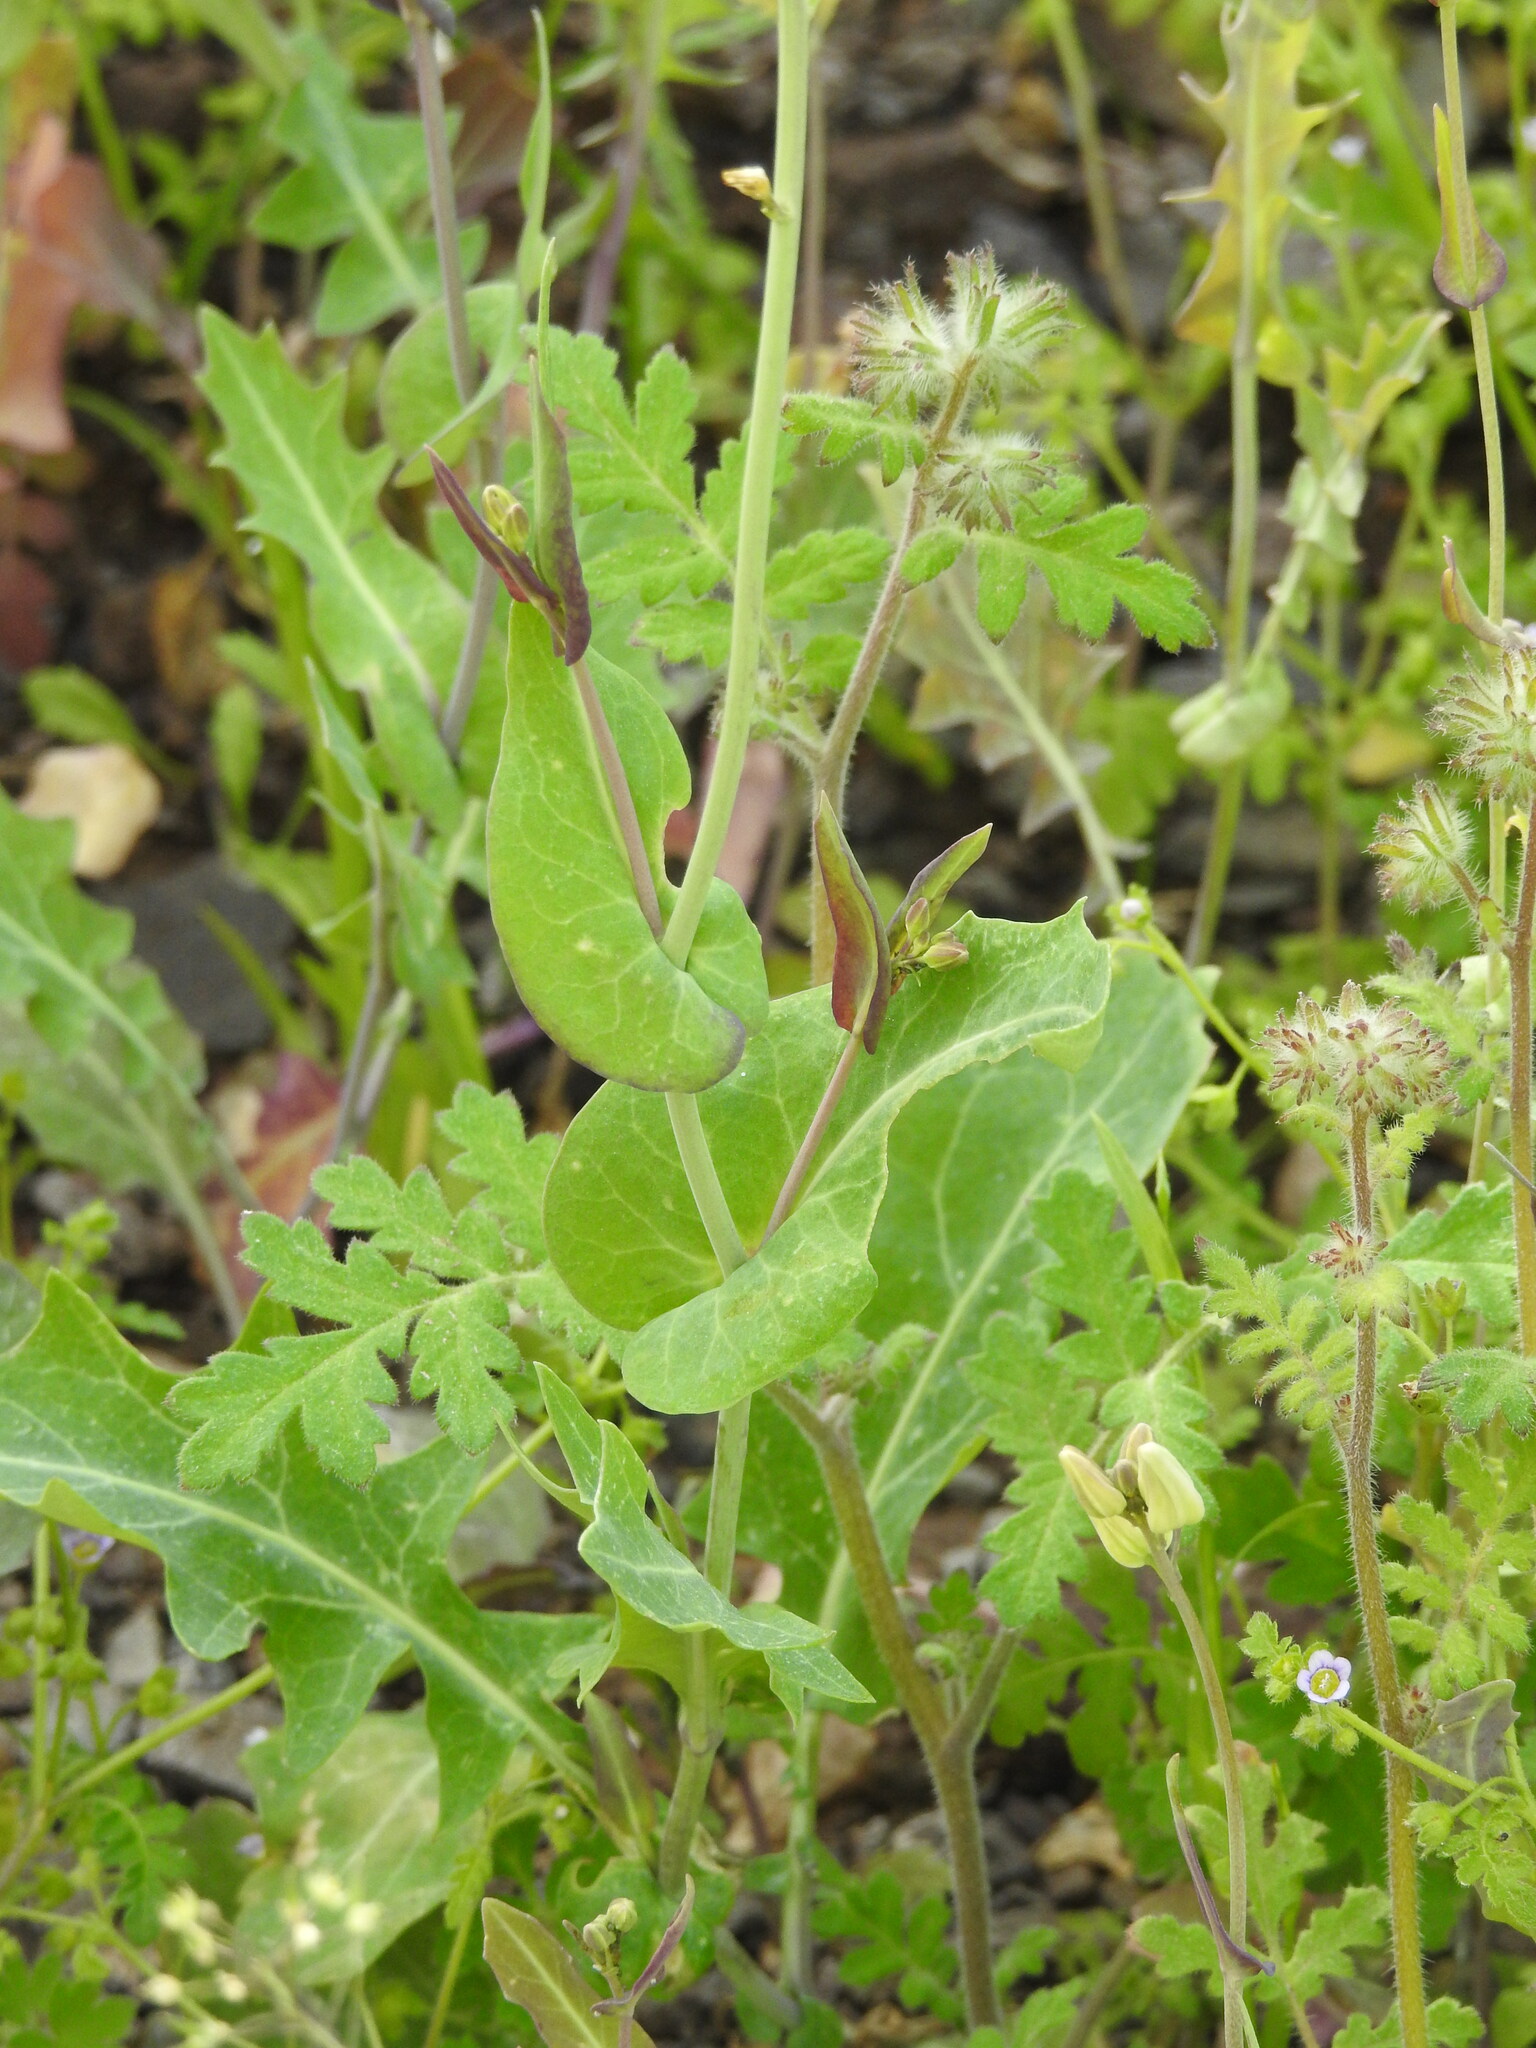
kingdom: Plantae
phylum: Tracheophyta
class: Magnoliopsida
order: Brassicales
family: Brassicaceae
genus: Streptanthus
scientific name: Streptanthus carinatus
